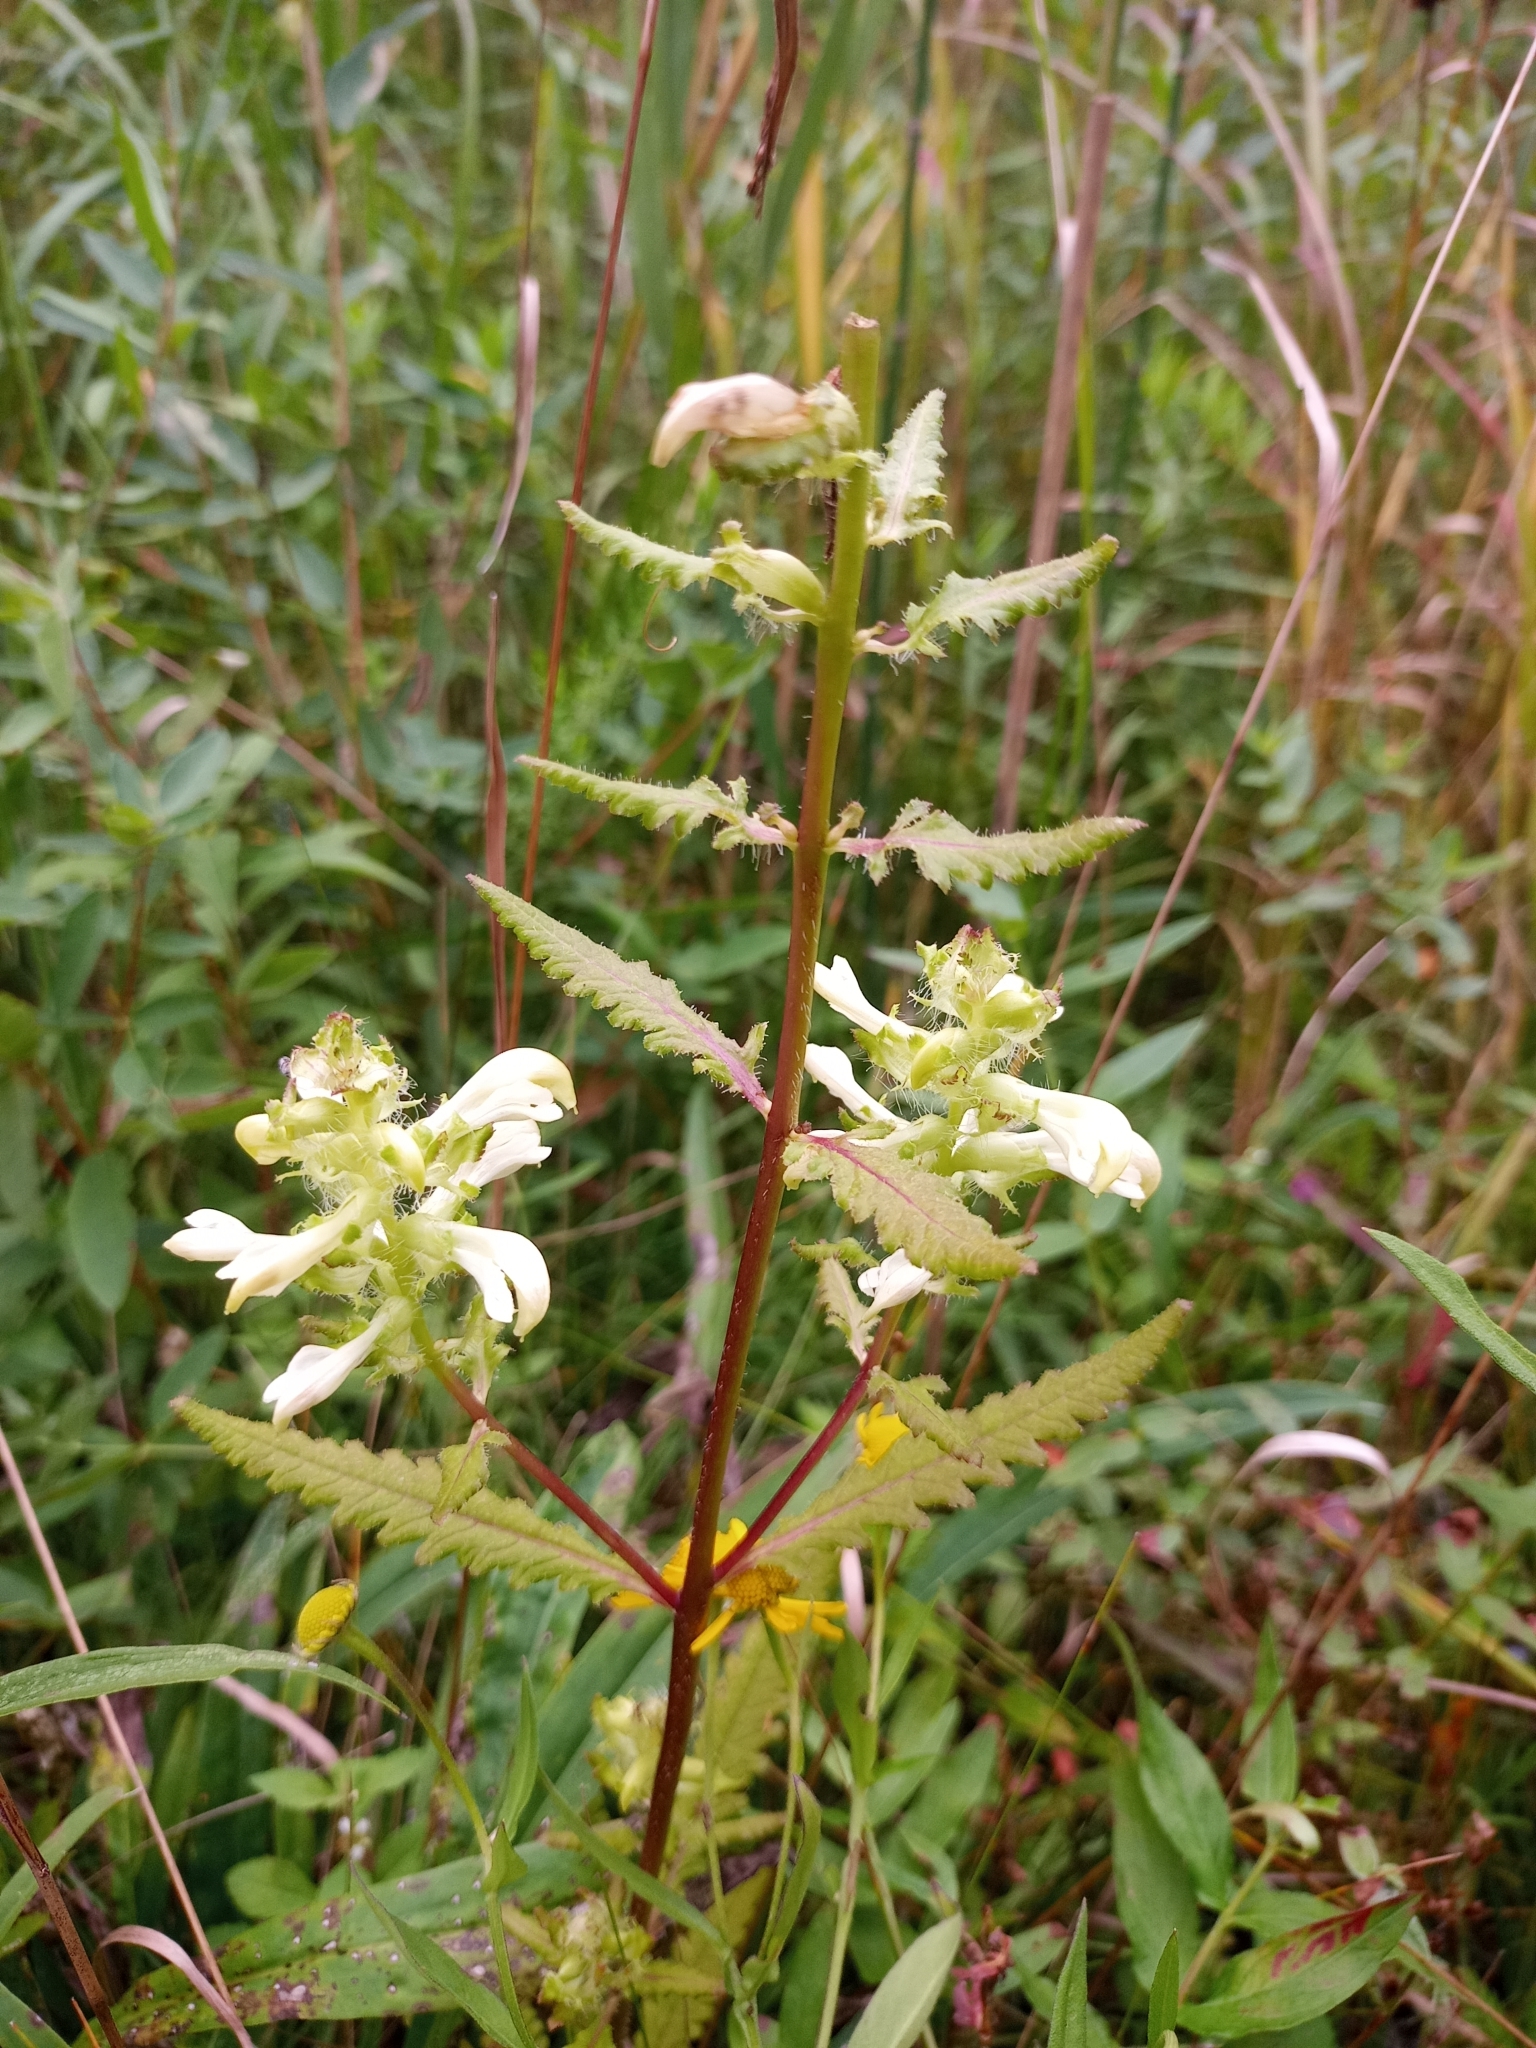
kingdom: Plantae
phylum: Tracheophyta
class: Magnoliopsida
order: Lamiales
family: Orobanchaceae
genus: Pedicularis
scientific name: Pedicularis lanceolata
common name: Swamp lousewort
